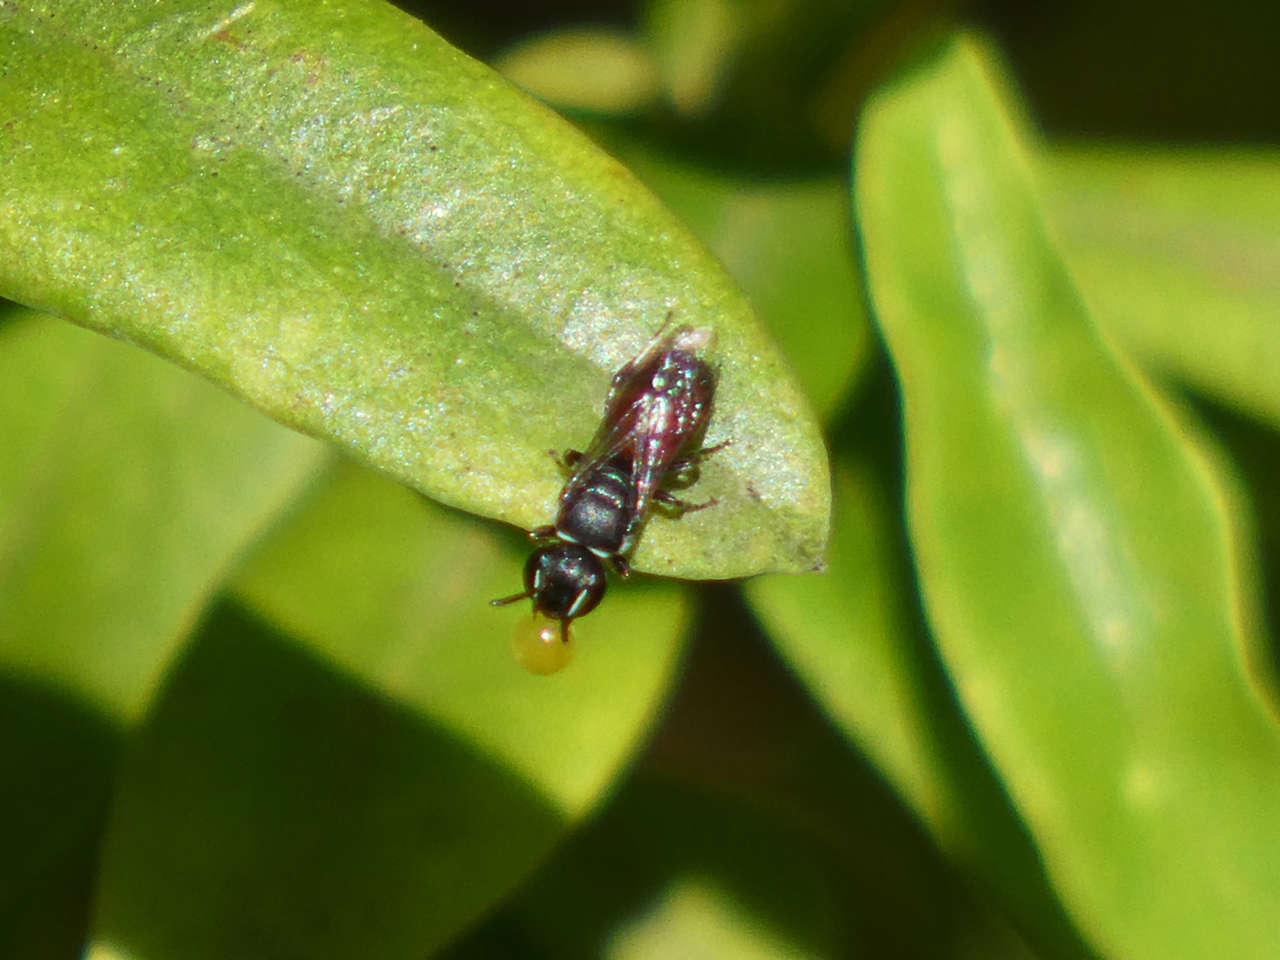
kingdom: Animalia
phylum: Arthropoda
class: Insecta
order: Hymenoptera
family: Colletidae
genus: Hylaeus
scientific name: Hylaeus littleri
